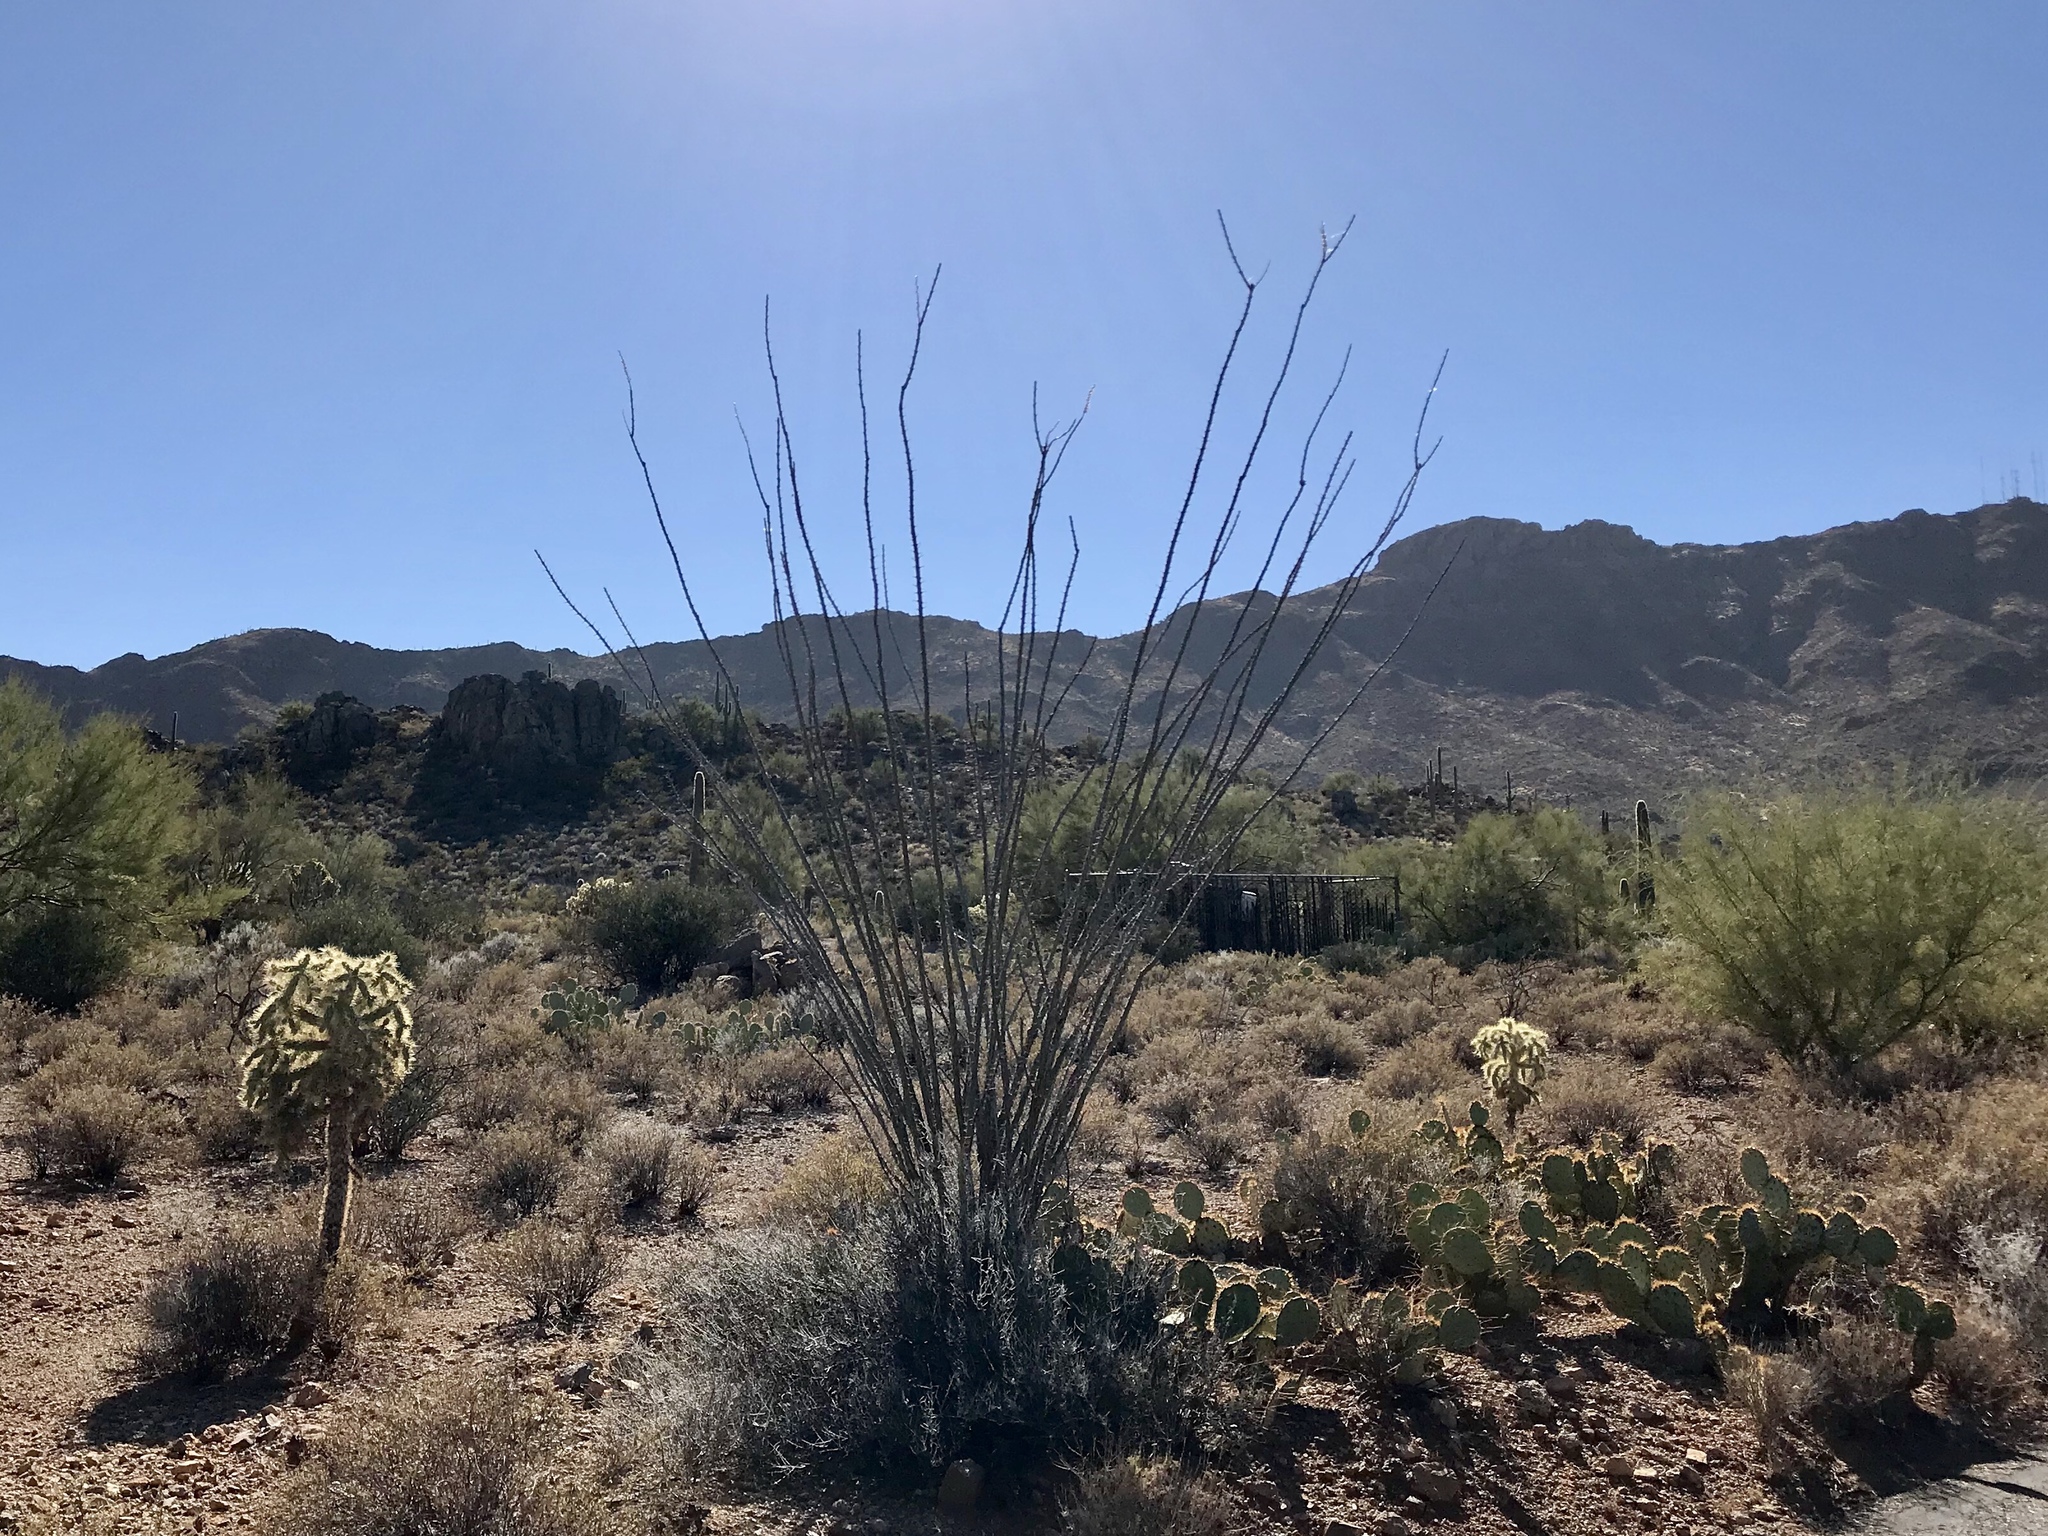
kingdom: Plantae
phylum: Tracheophyta
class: Magnoliopsida
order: Ericales
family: Fouquieriaceae
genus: Fouquieria
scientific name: Fouquieria splendens
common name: Vine-cactus
